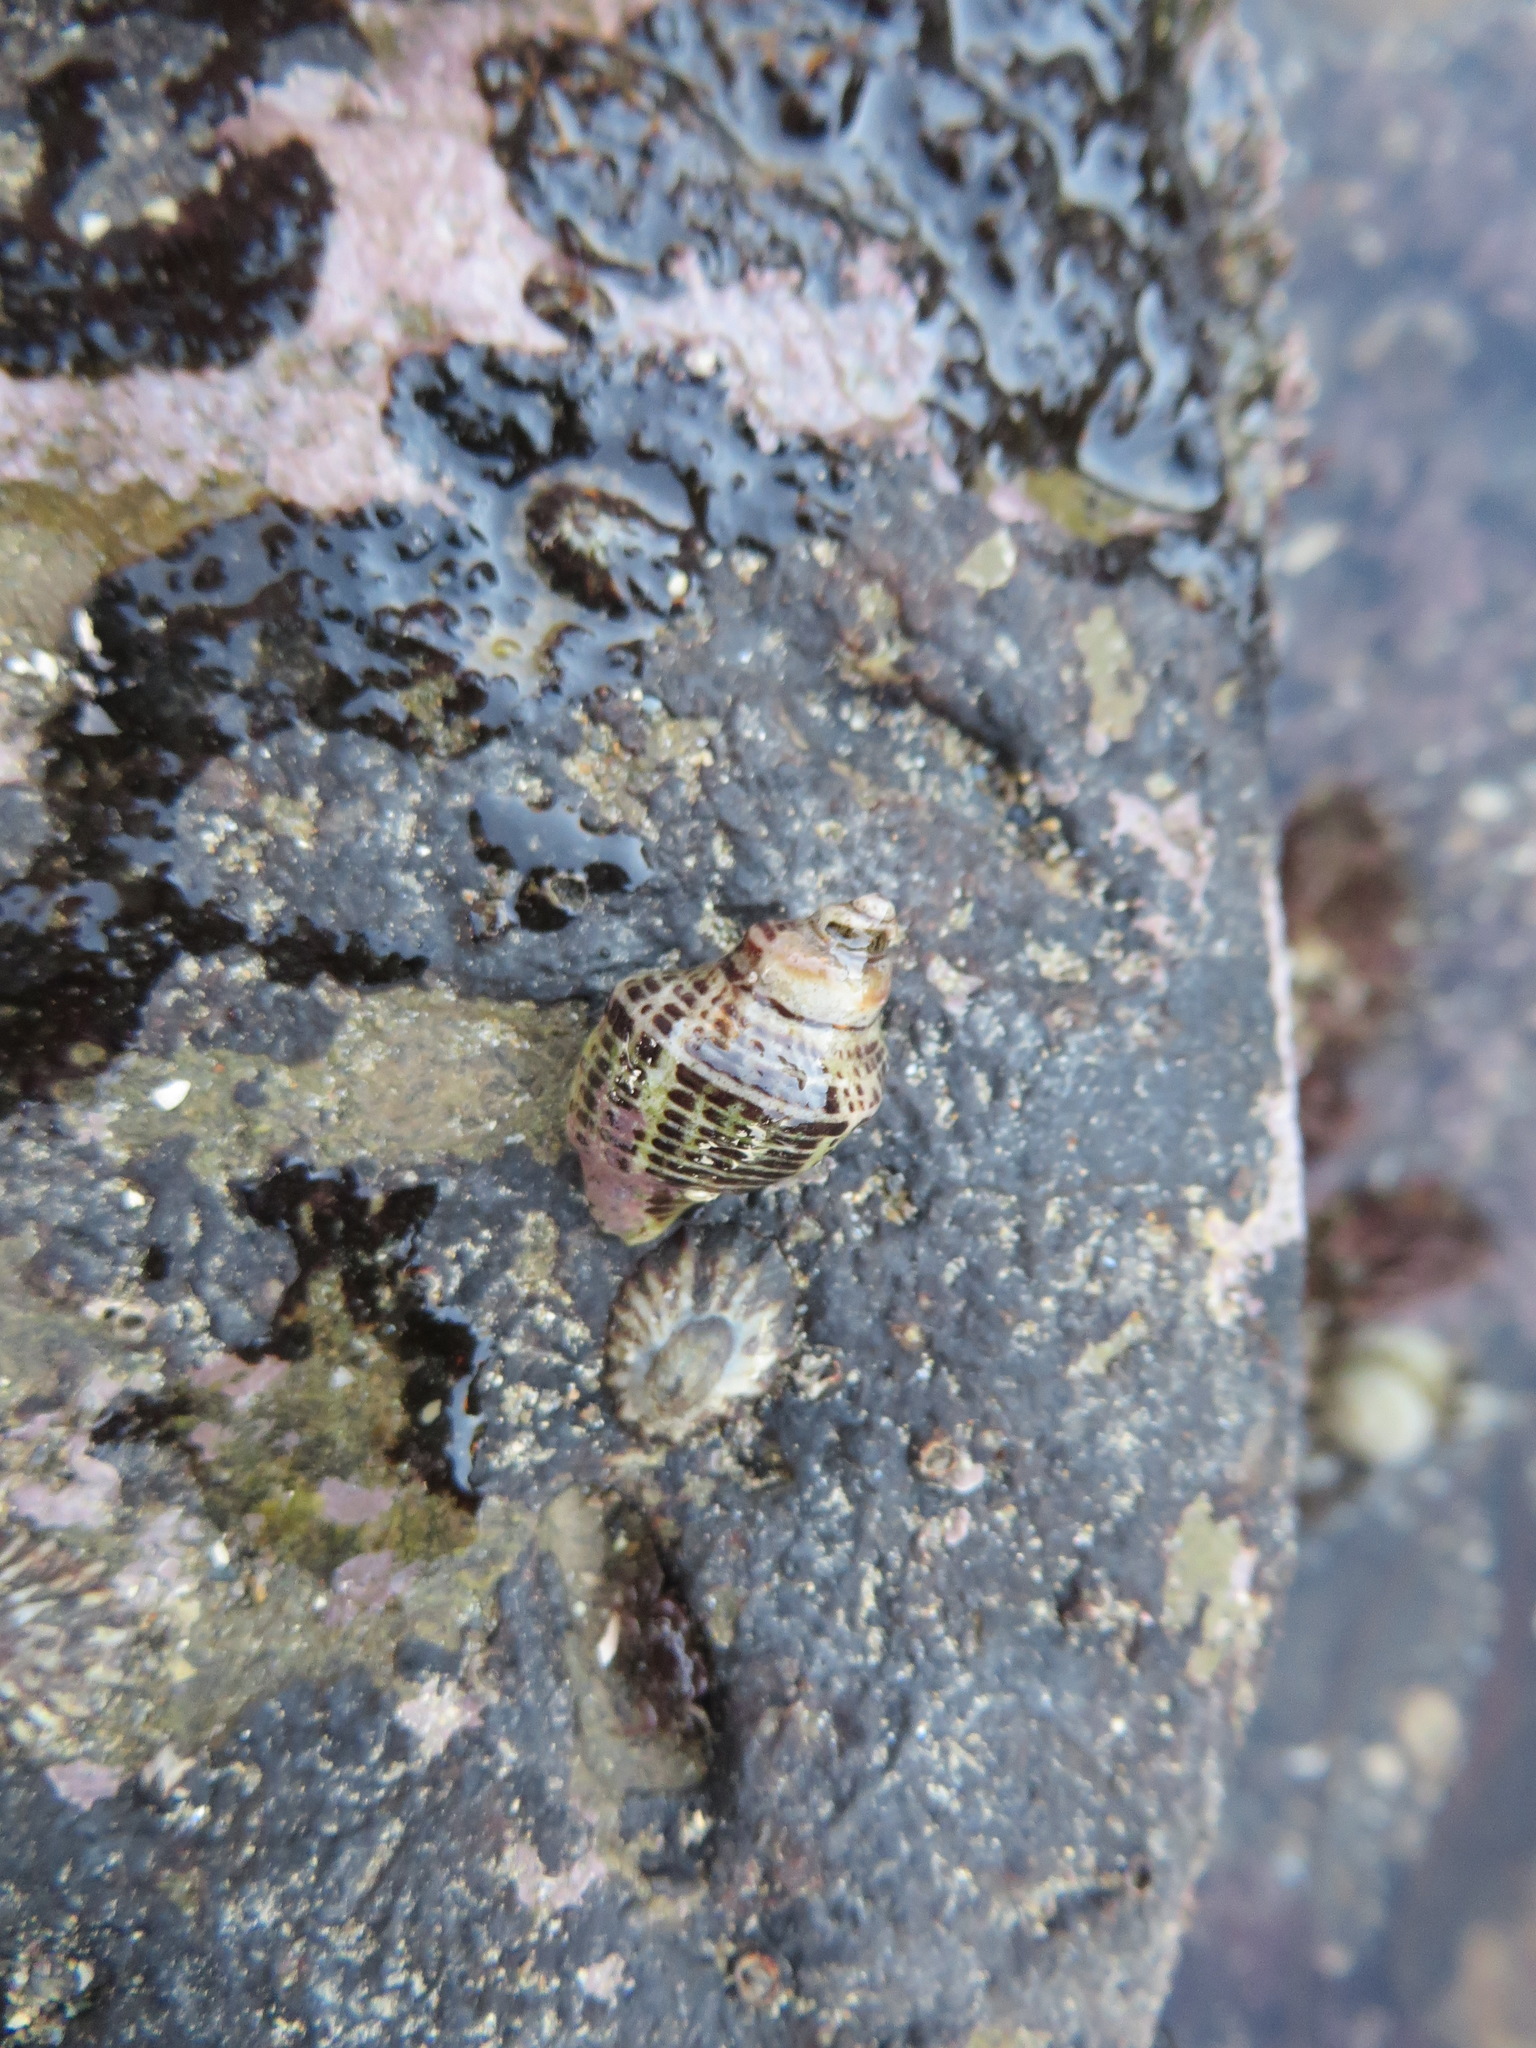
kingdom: Animalia
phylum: Mollusca
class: Gastropoda
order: Neogastropoda
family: Muricidae
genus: Acanthinucella
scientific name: Acanthinucella spirata
